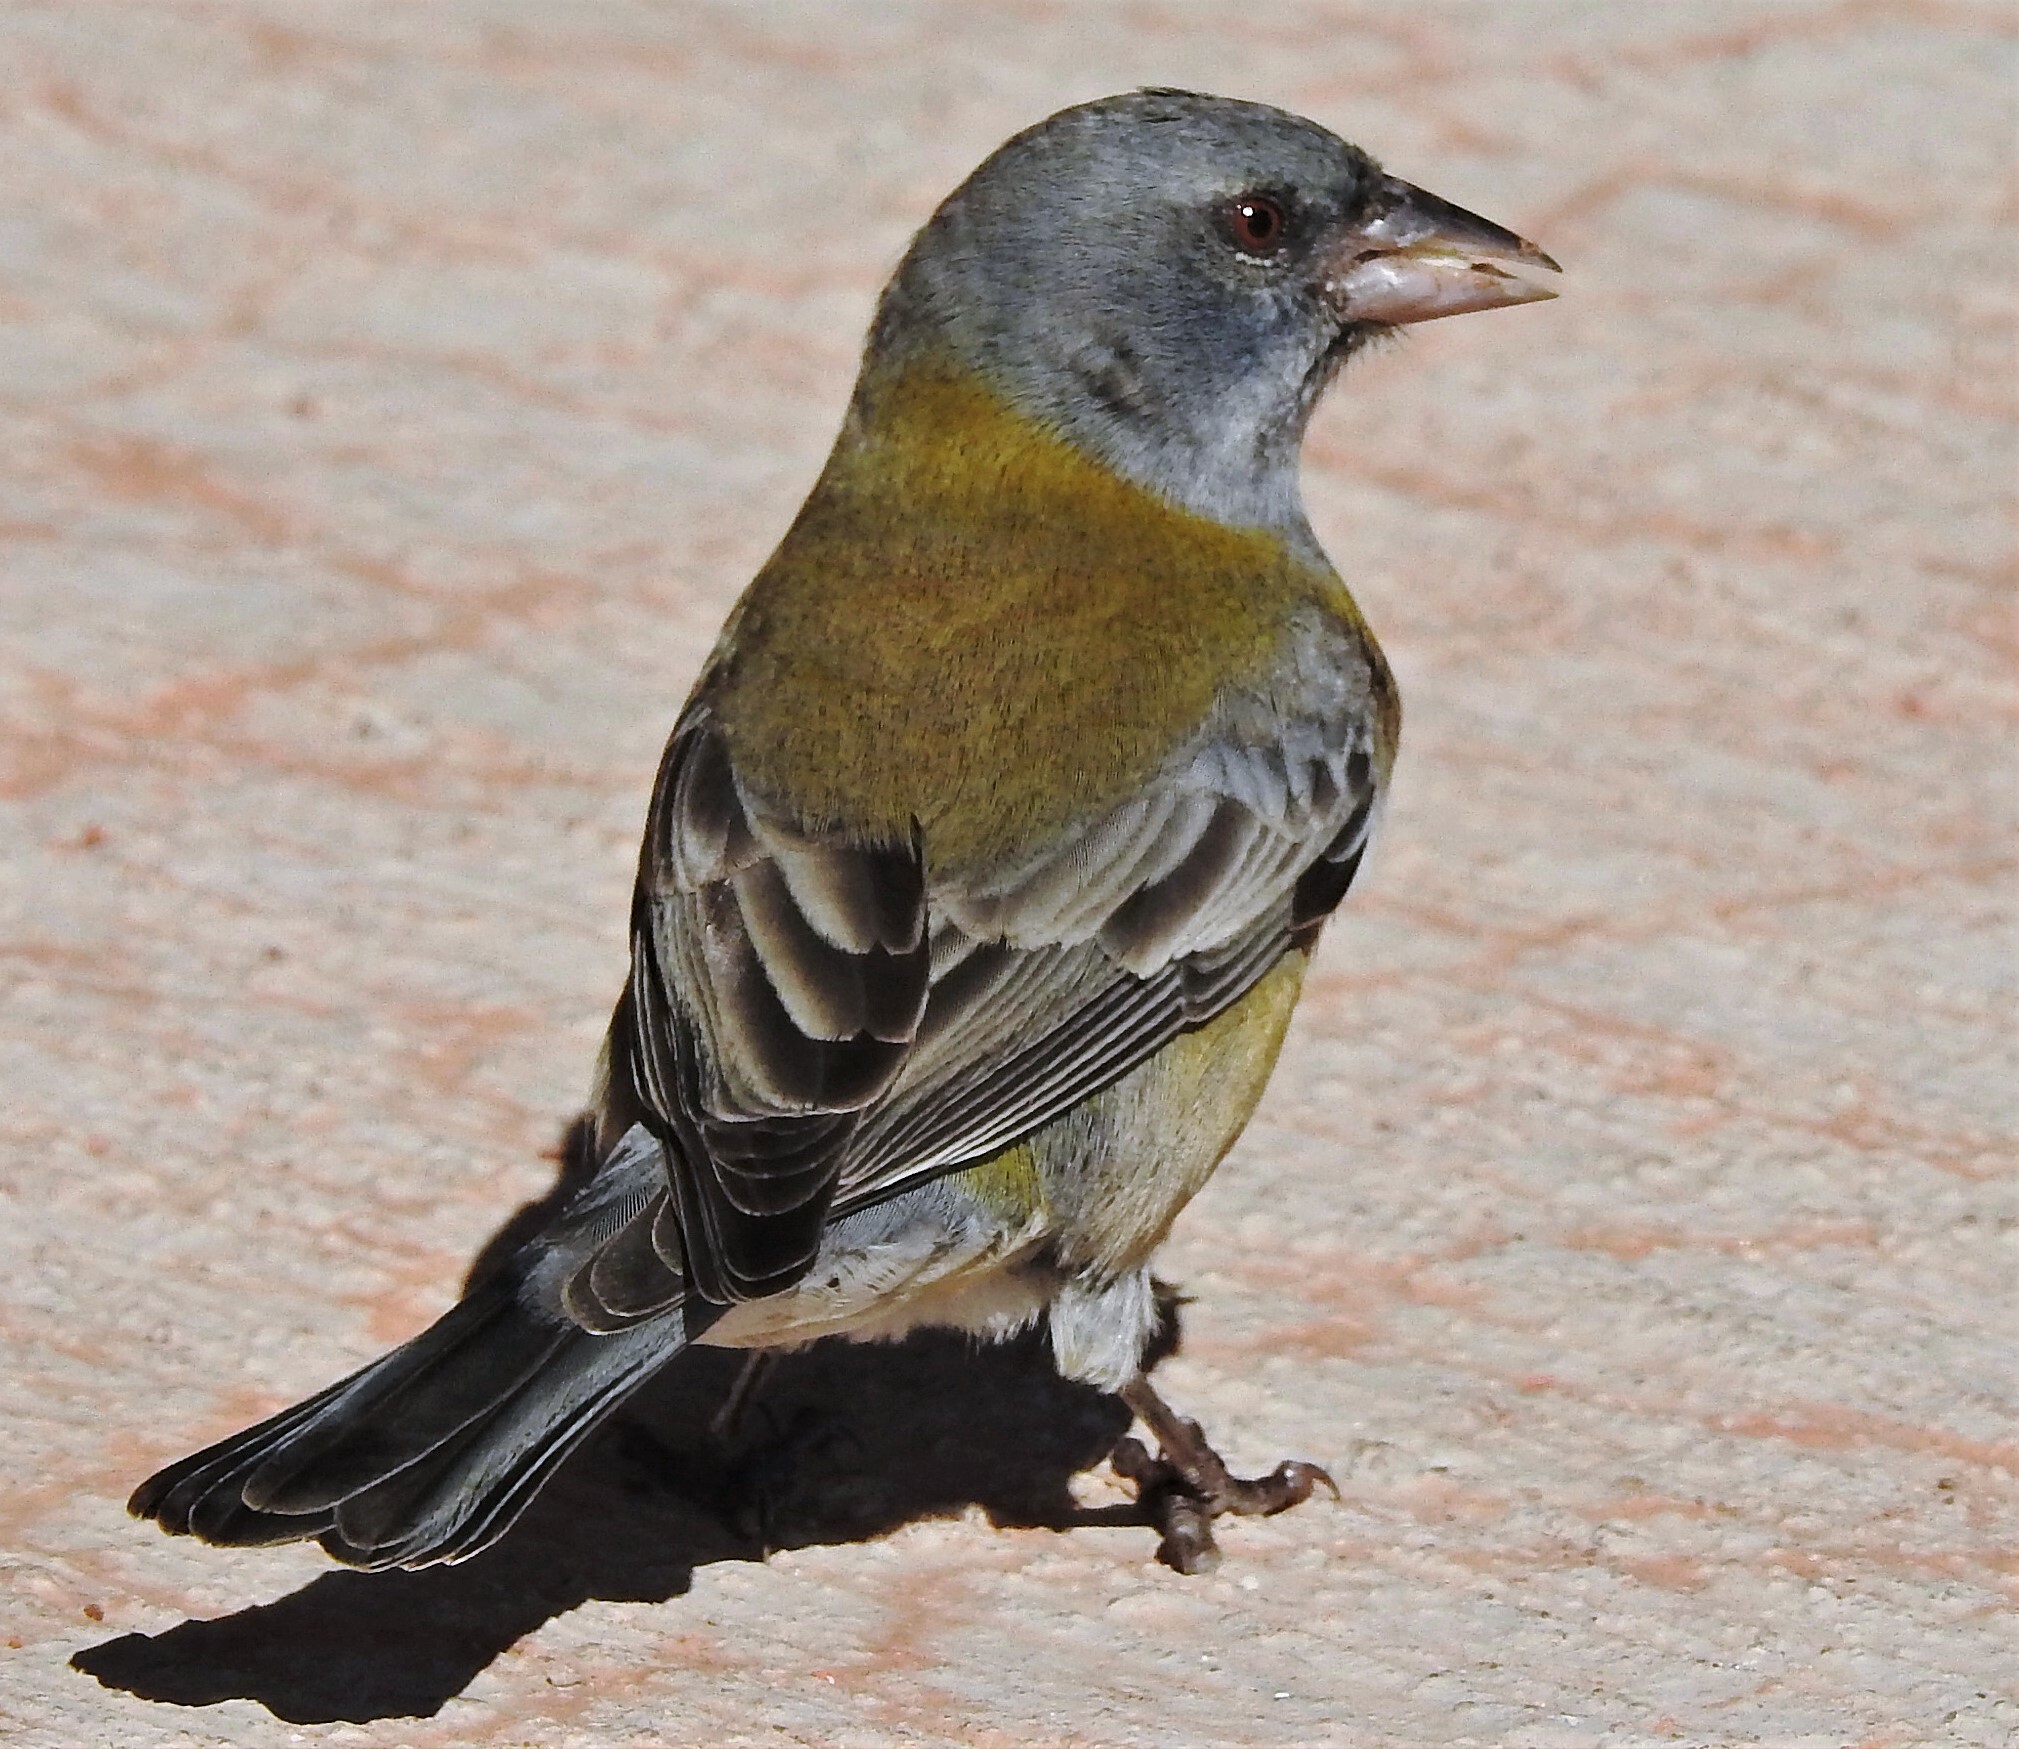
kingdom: Animalia
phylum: Chordata
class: Aves
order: Passeriformes
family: Thraupidae
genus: Phrygilus
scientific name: Phrygilus gayi
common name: Grey-hooded sierra finch
